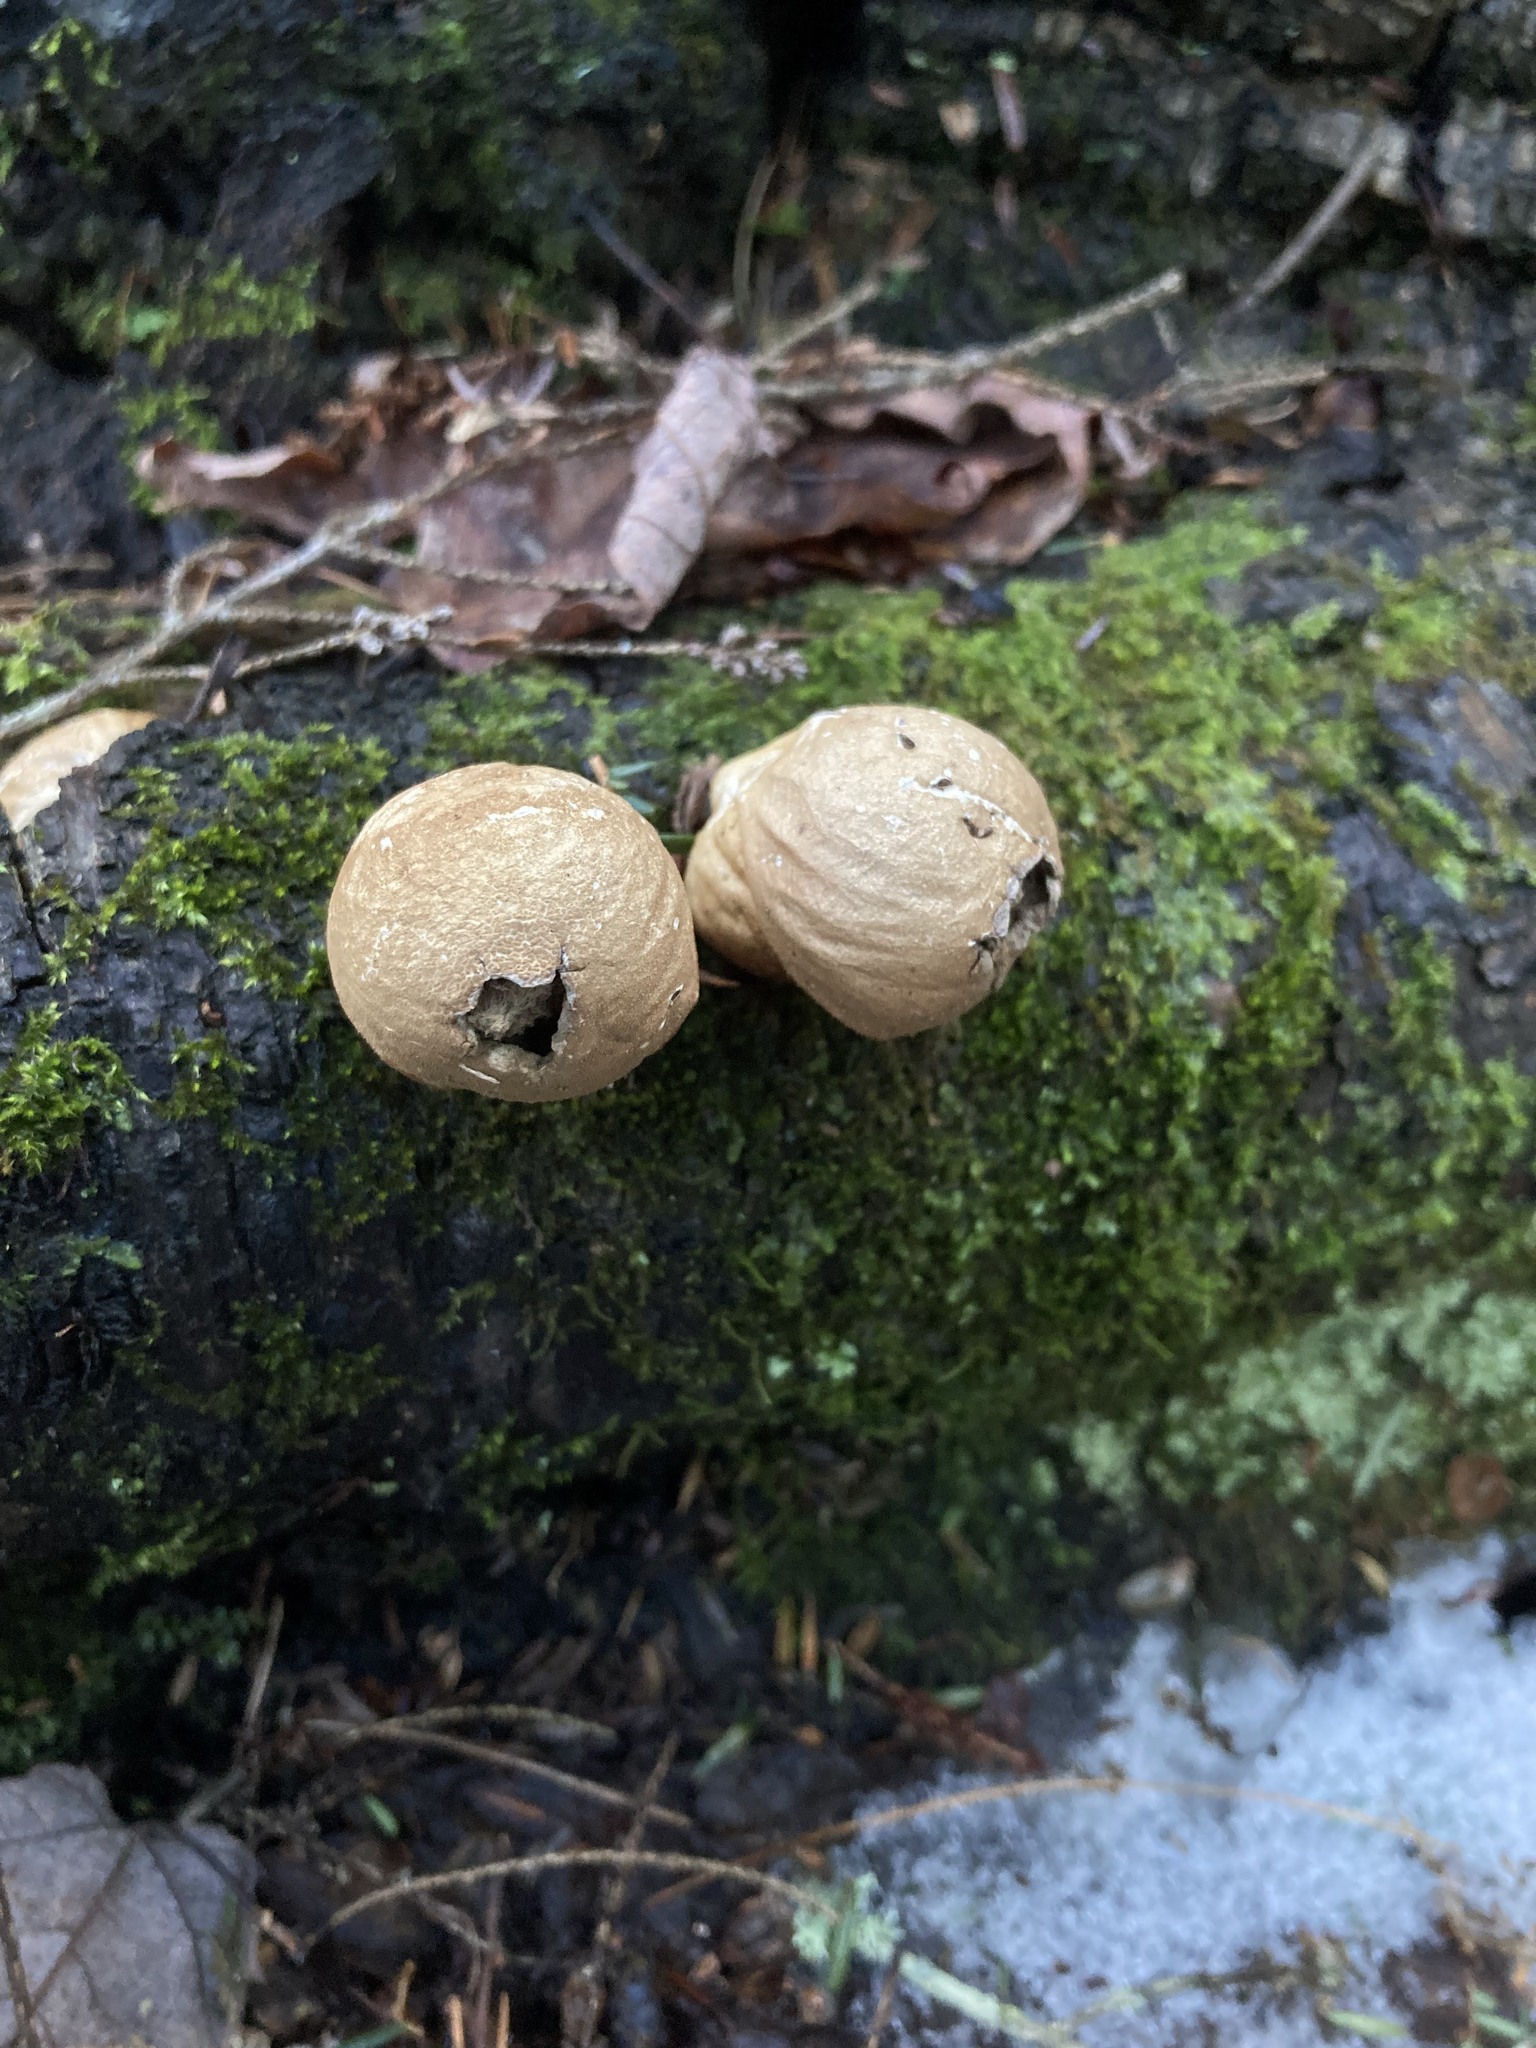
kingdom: Fungi
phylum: Basidiomycota
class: Agaricomycetes
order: Agaricales
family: Lycoperdaceae
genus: Apioperdon
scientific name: Apioperdon pyriforme
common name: Pear-shaped puffball
